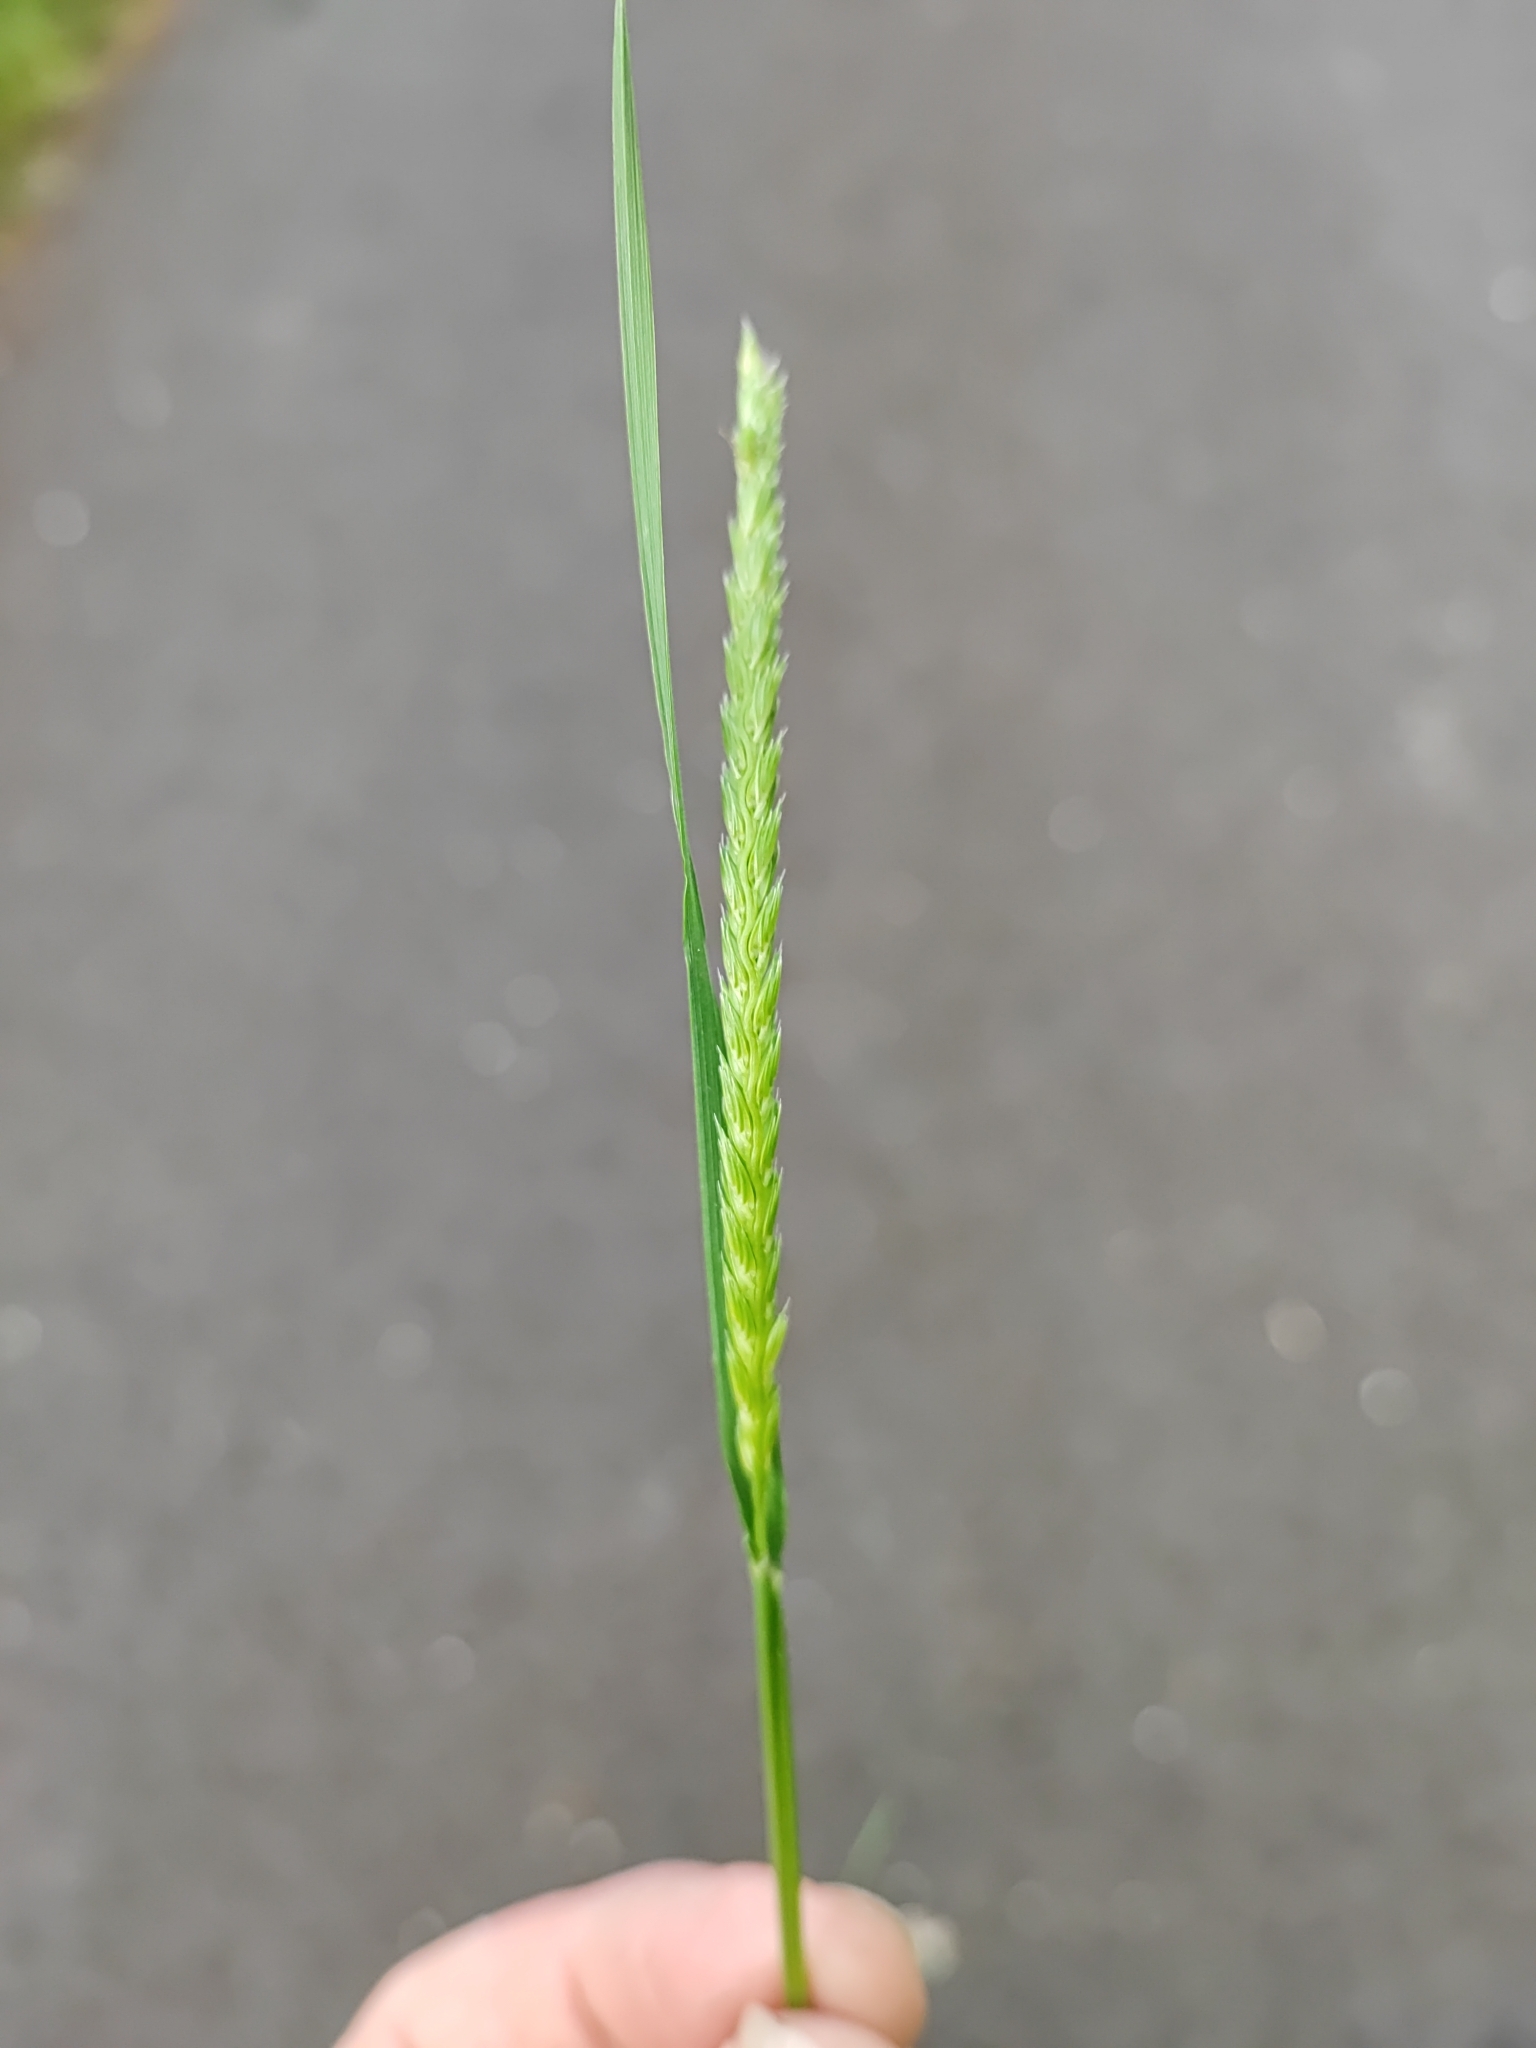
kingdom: Plantae
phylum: Tracheophyta
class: Liliopsida
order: Poales
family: Poaceae
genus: Cynosurus
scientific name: Cynosurus cristatus
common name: Crested dog's-tail
